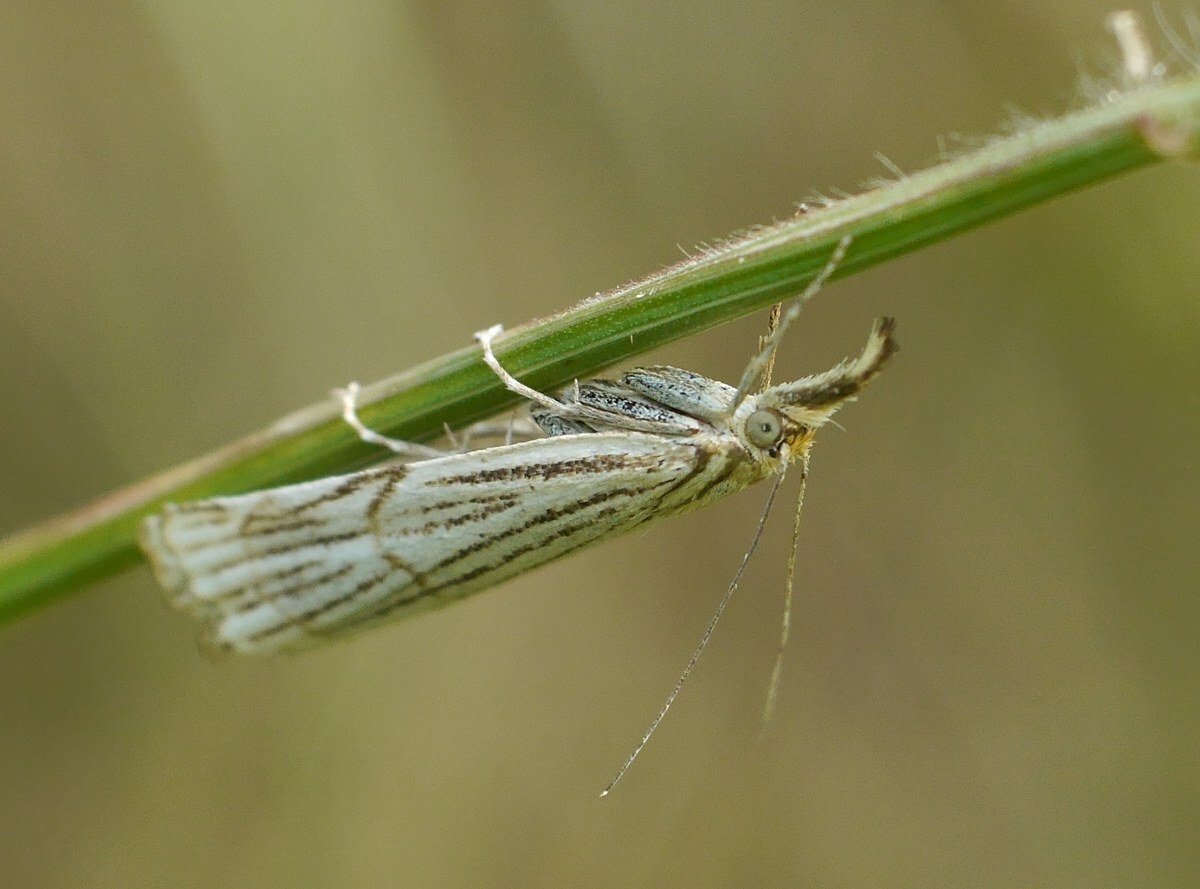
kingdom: Animalia
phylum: Arthropoda
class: Insecta
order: Lepidoptera
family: Crambidae
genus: Chrysocrambus
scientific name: Chrysocrambus Chrysocramboides craterellus
